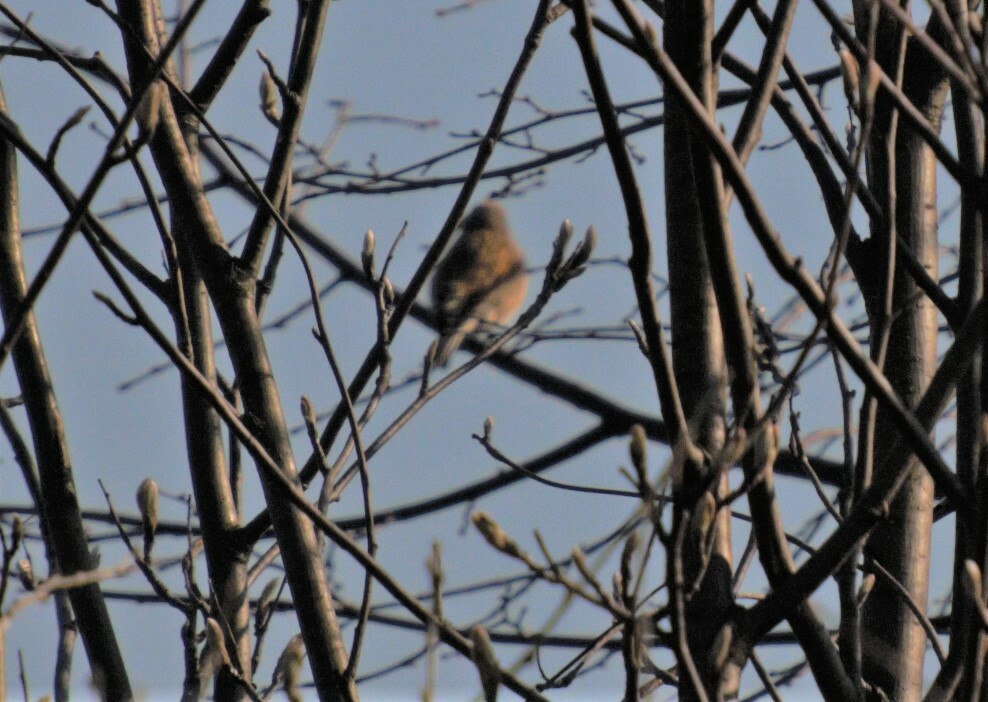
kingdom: Animalia
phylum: Chordata
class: Aves
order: Passeriformes
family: Fringillidae
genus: Linaria
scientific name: Linaria cannabina
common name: Common linnet
